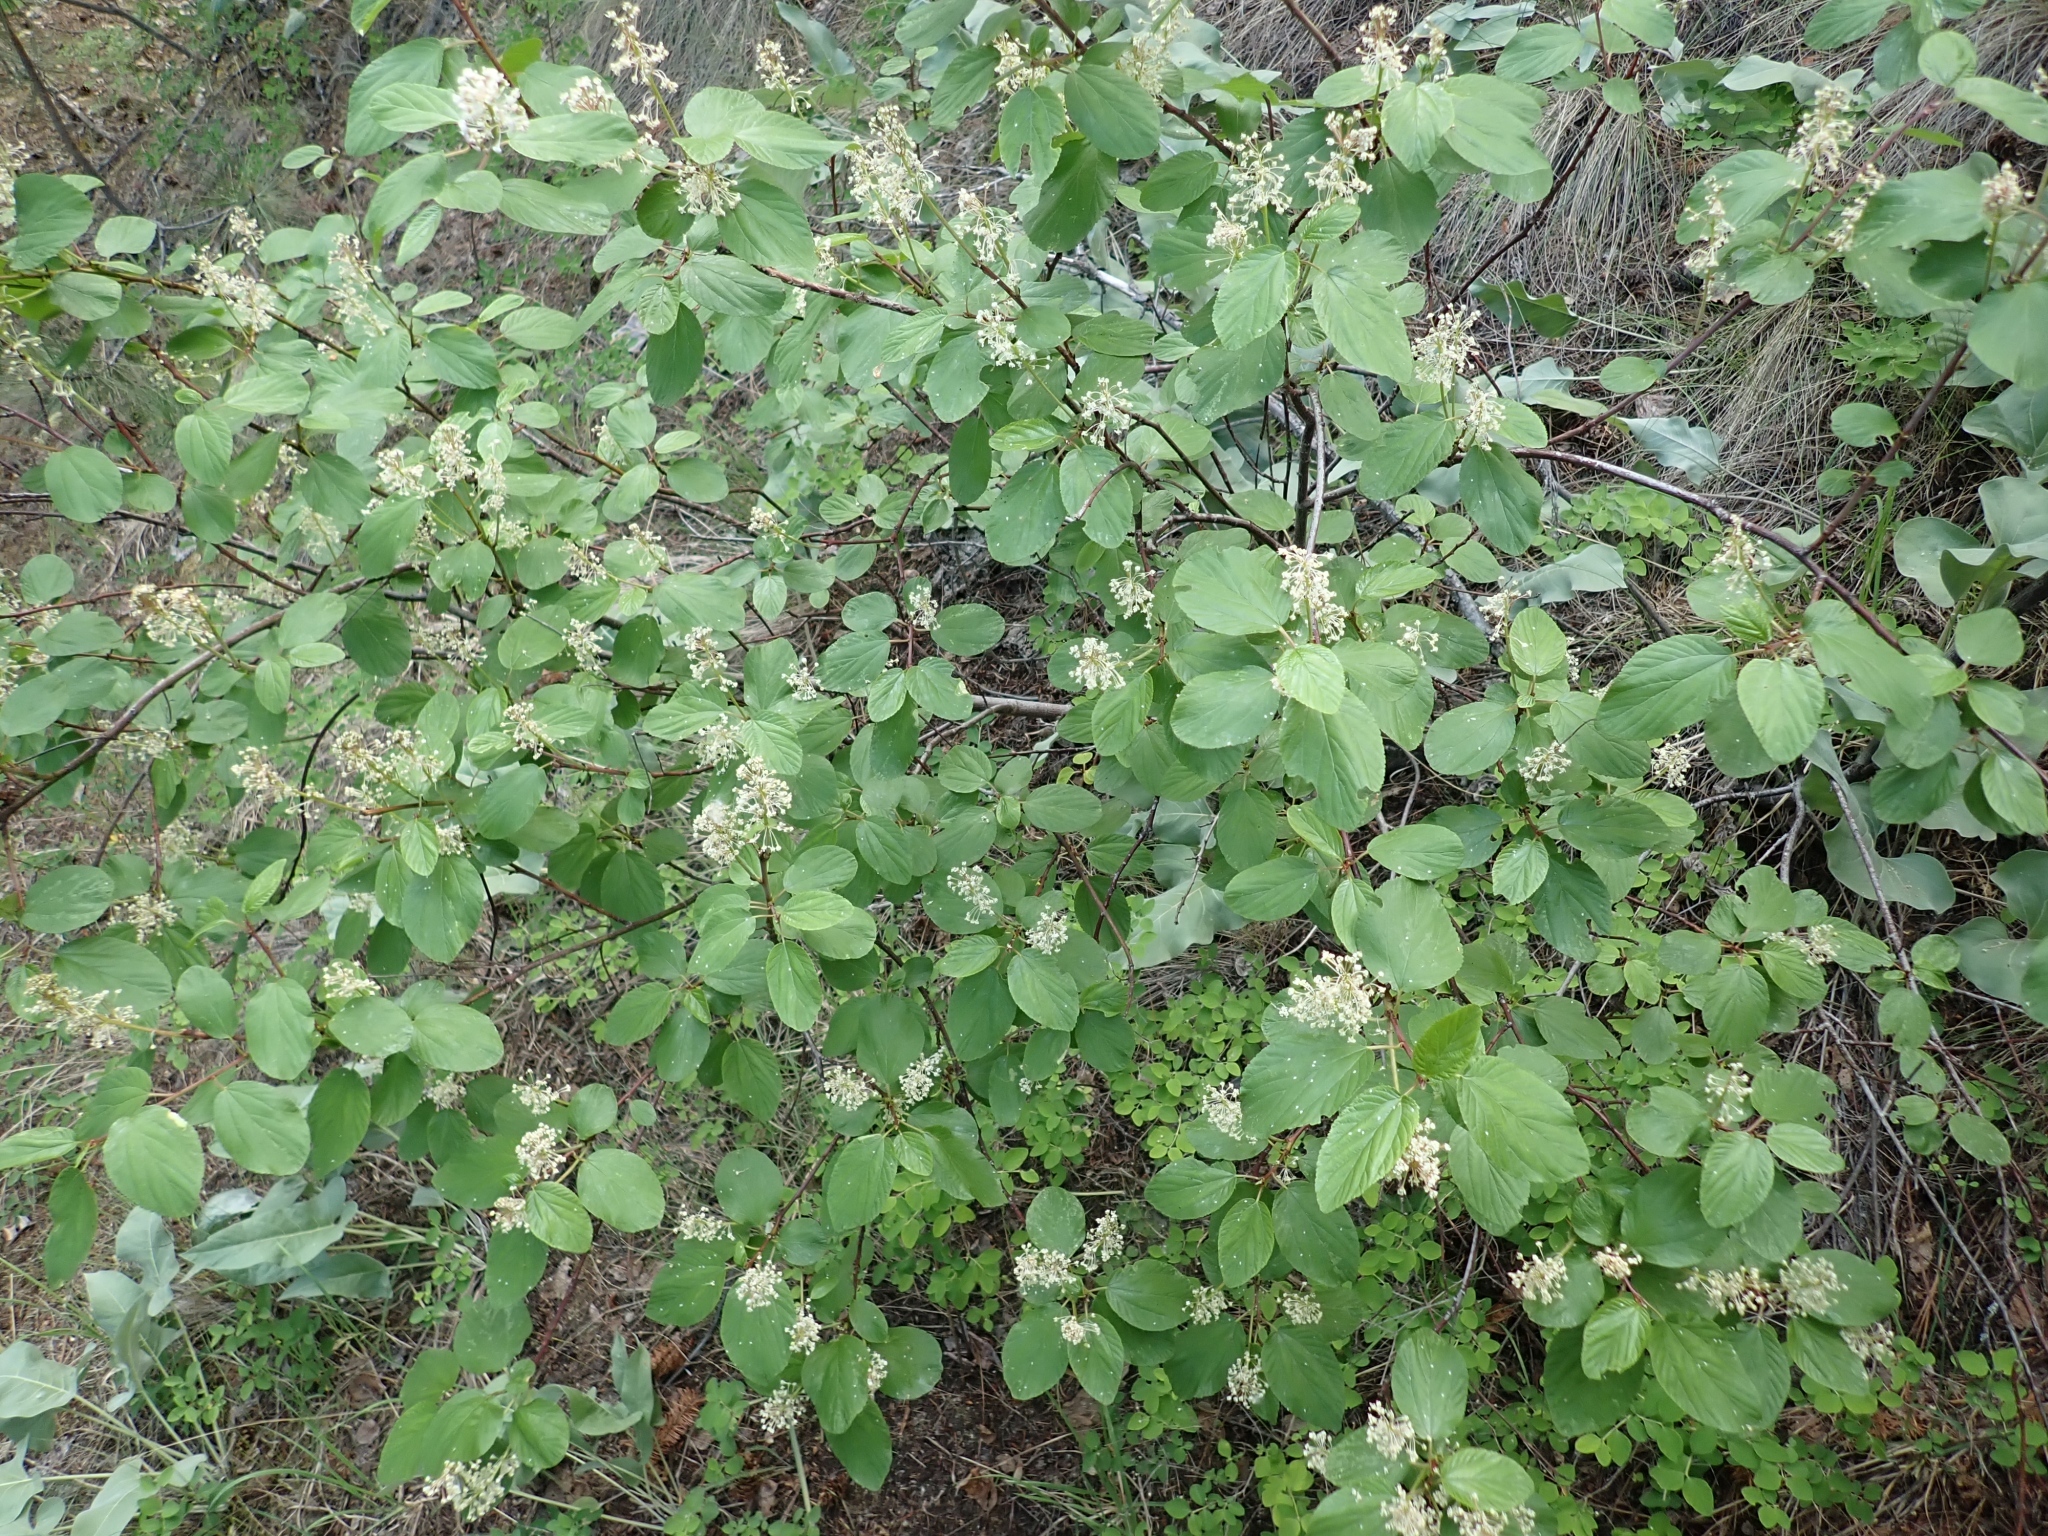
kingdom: Plantae
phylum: Tracheophyta
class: Magnoliopsida
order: Rosales
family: Rhamnaceae
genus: Ceanothus
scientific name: Ceanothus sanguineus
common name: Teatree
